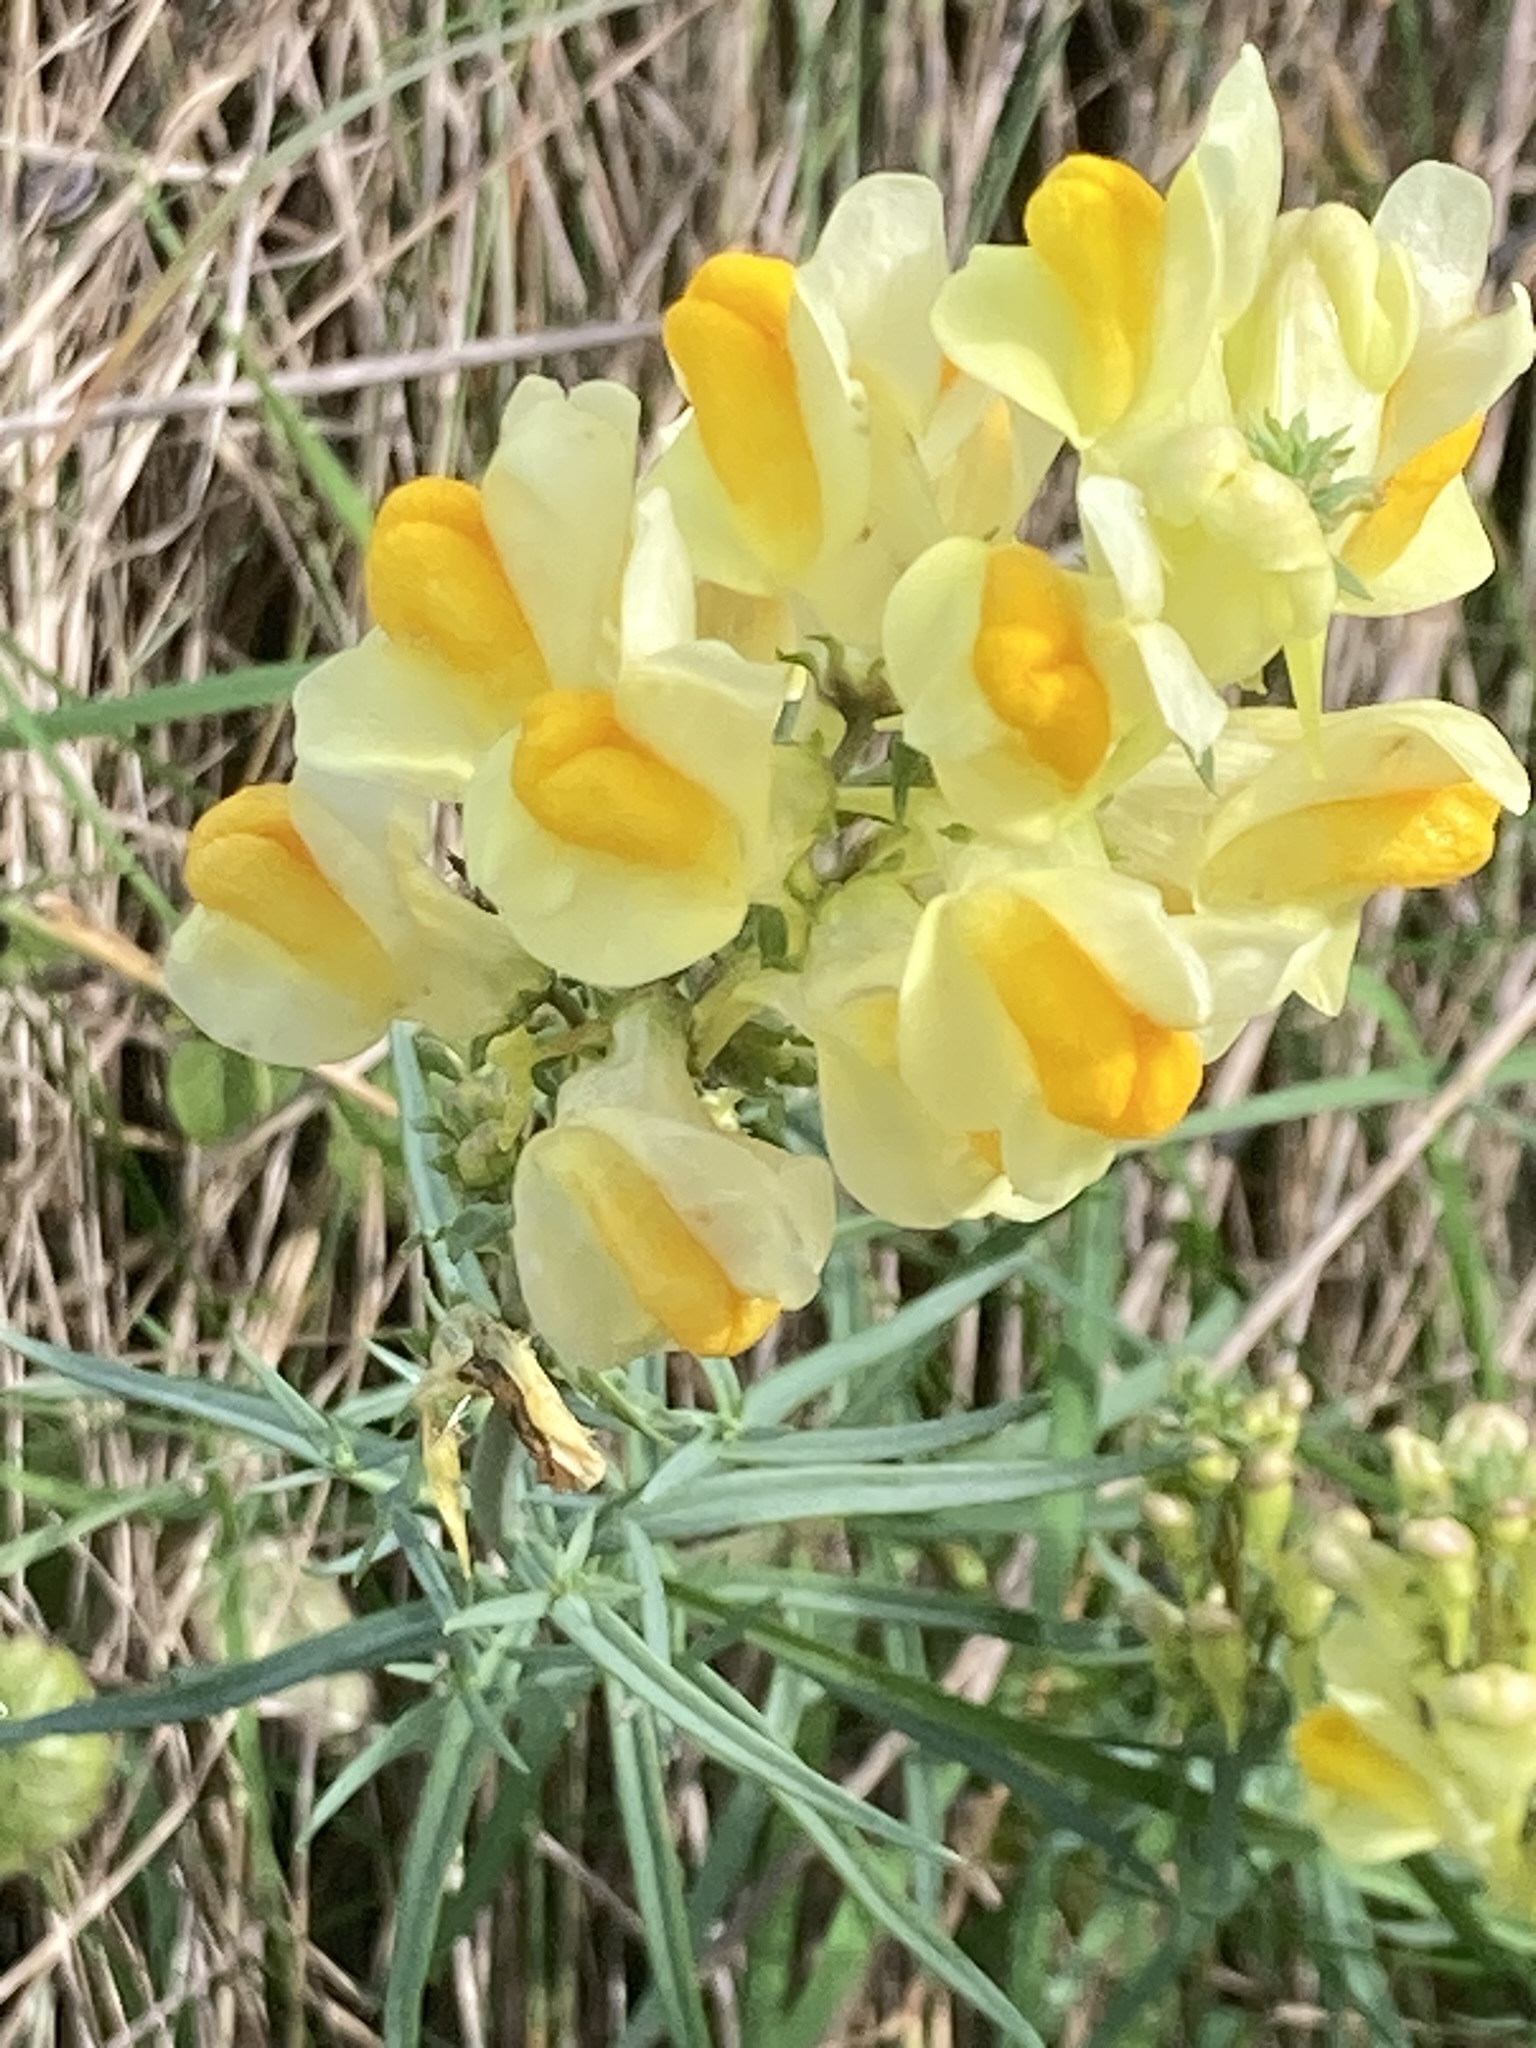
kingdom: Plantae
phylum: Tracheophyta
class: Magnoliopsida
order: Lamiales
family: Plantaginaceae
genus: Linaria
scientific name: Linaria vulgaris
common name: Butter and eggs
